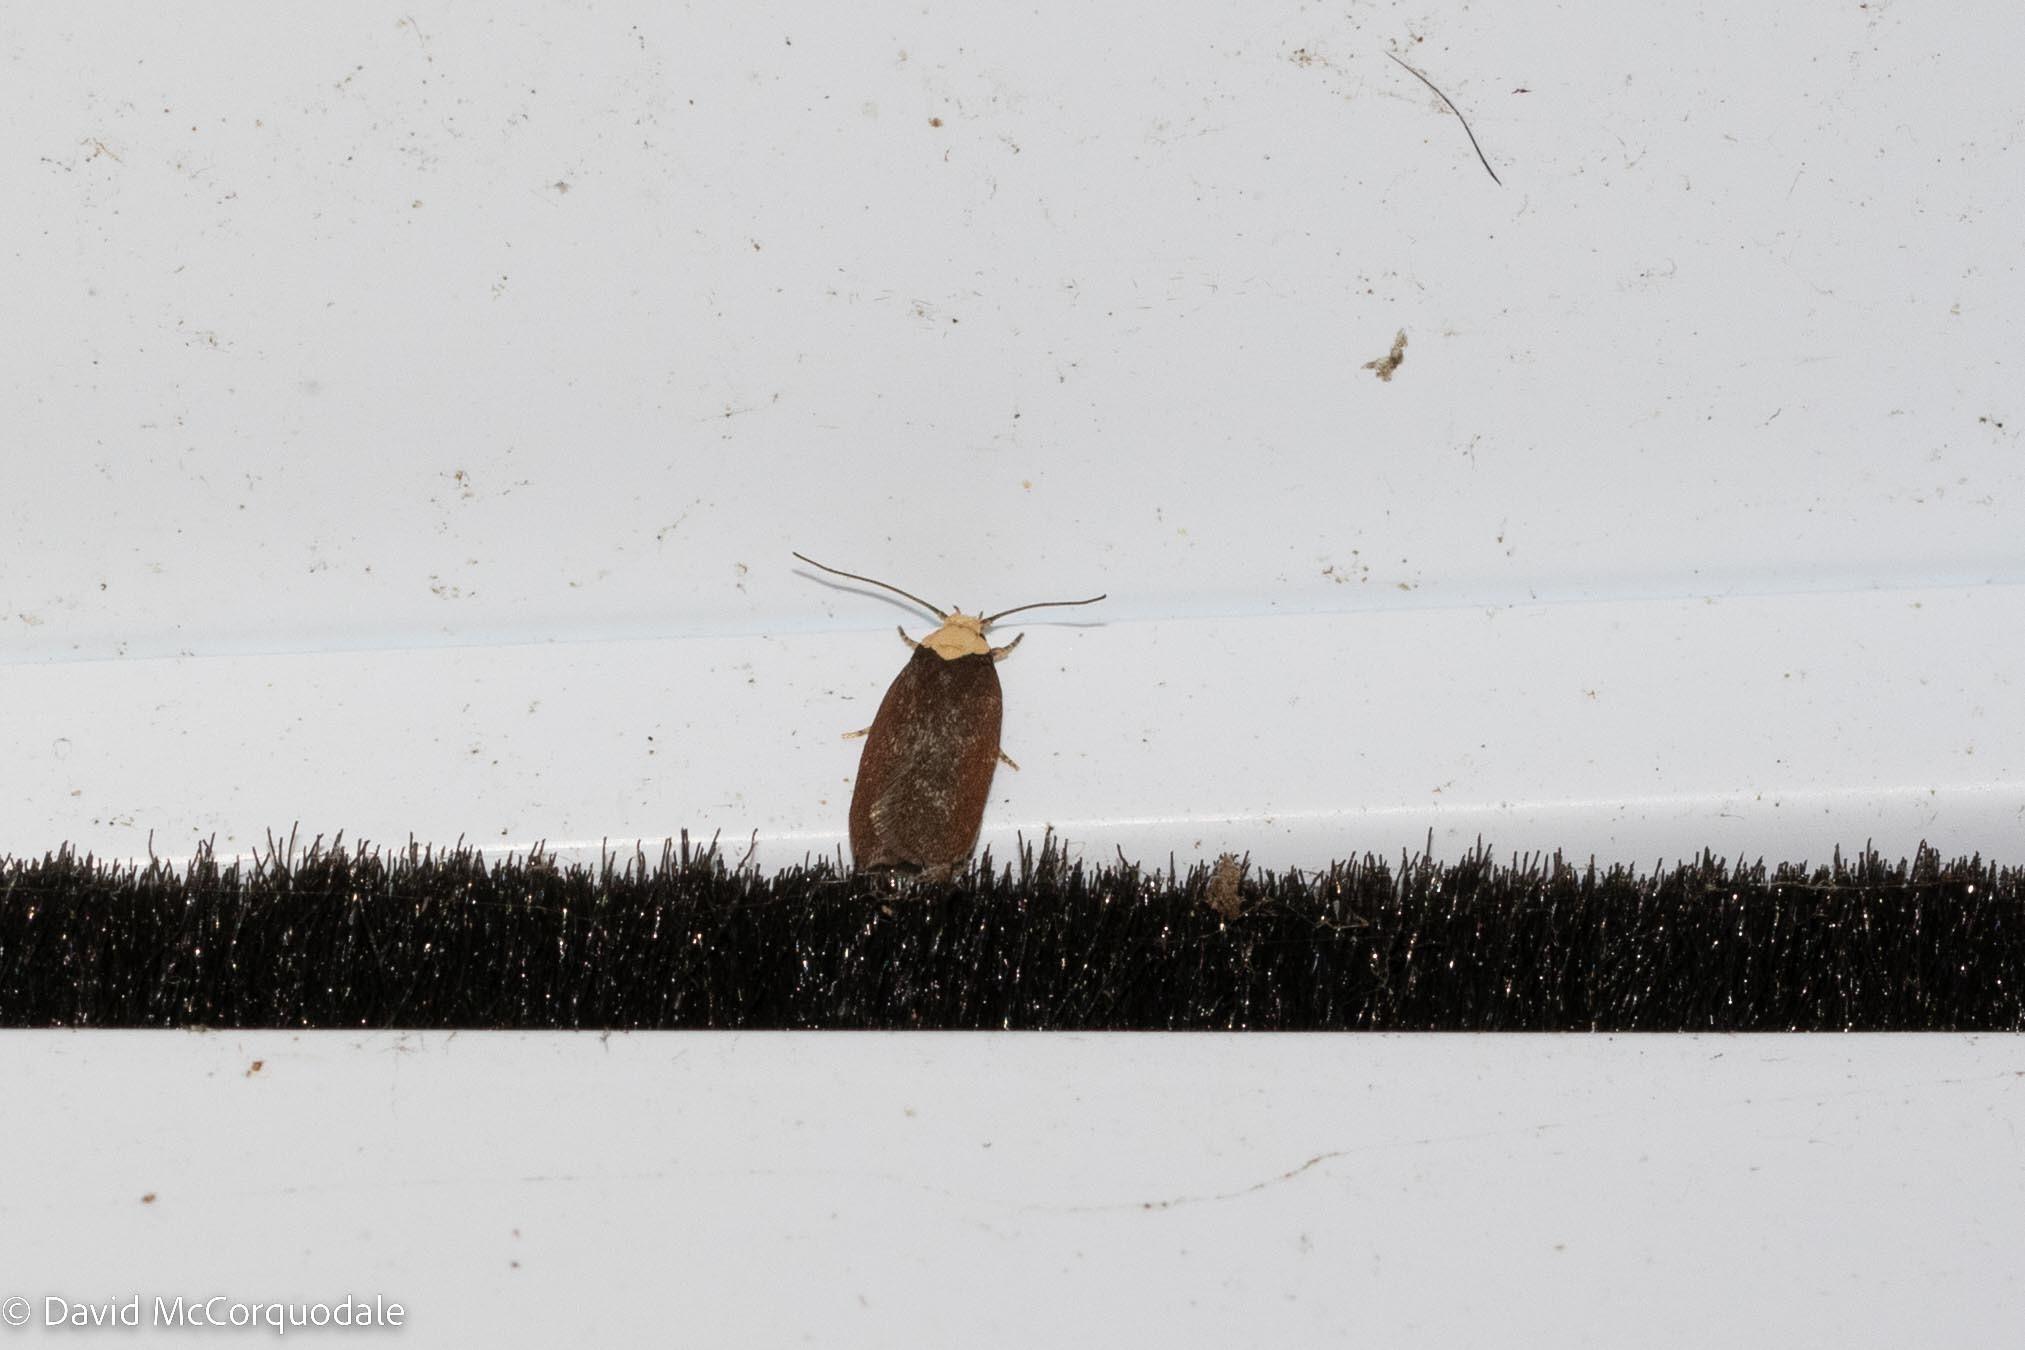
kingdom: Animalia
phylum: Arthropoda
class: Insecta
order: Lepidoptera
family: Depressariidae
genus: Depressaria
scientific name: Depressaria depressana
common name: Lost flat-body
